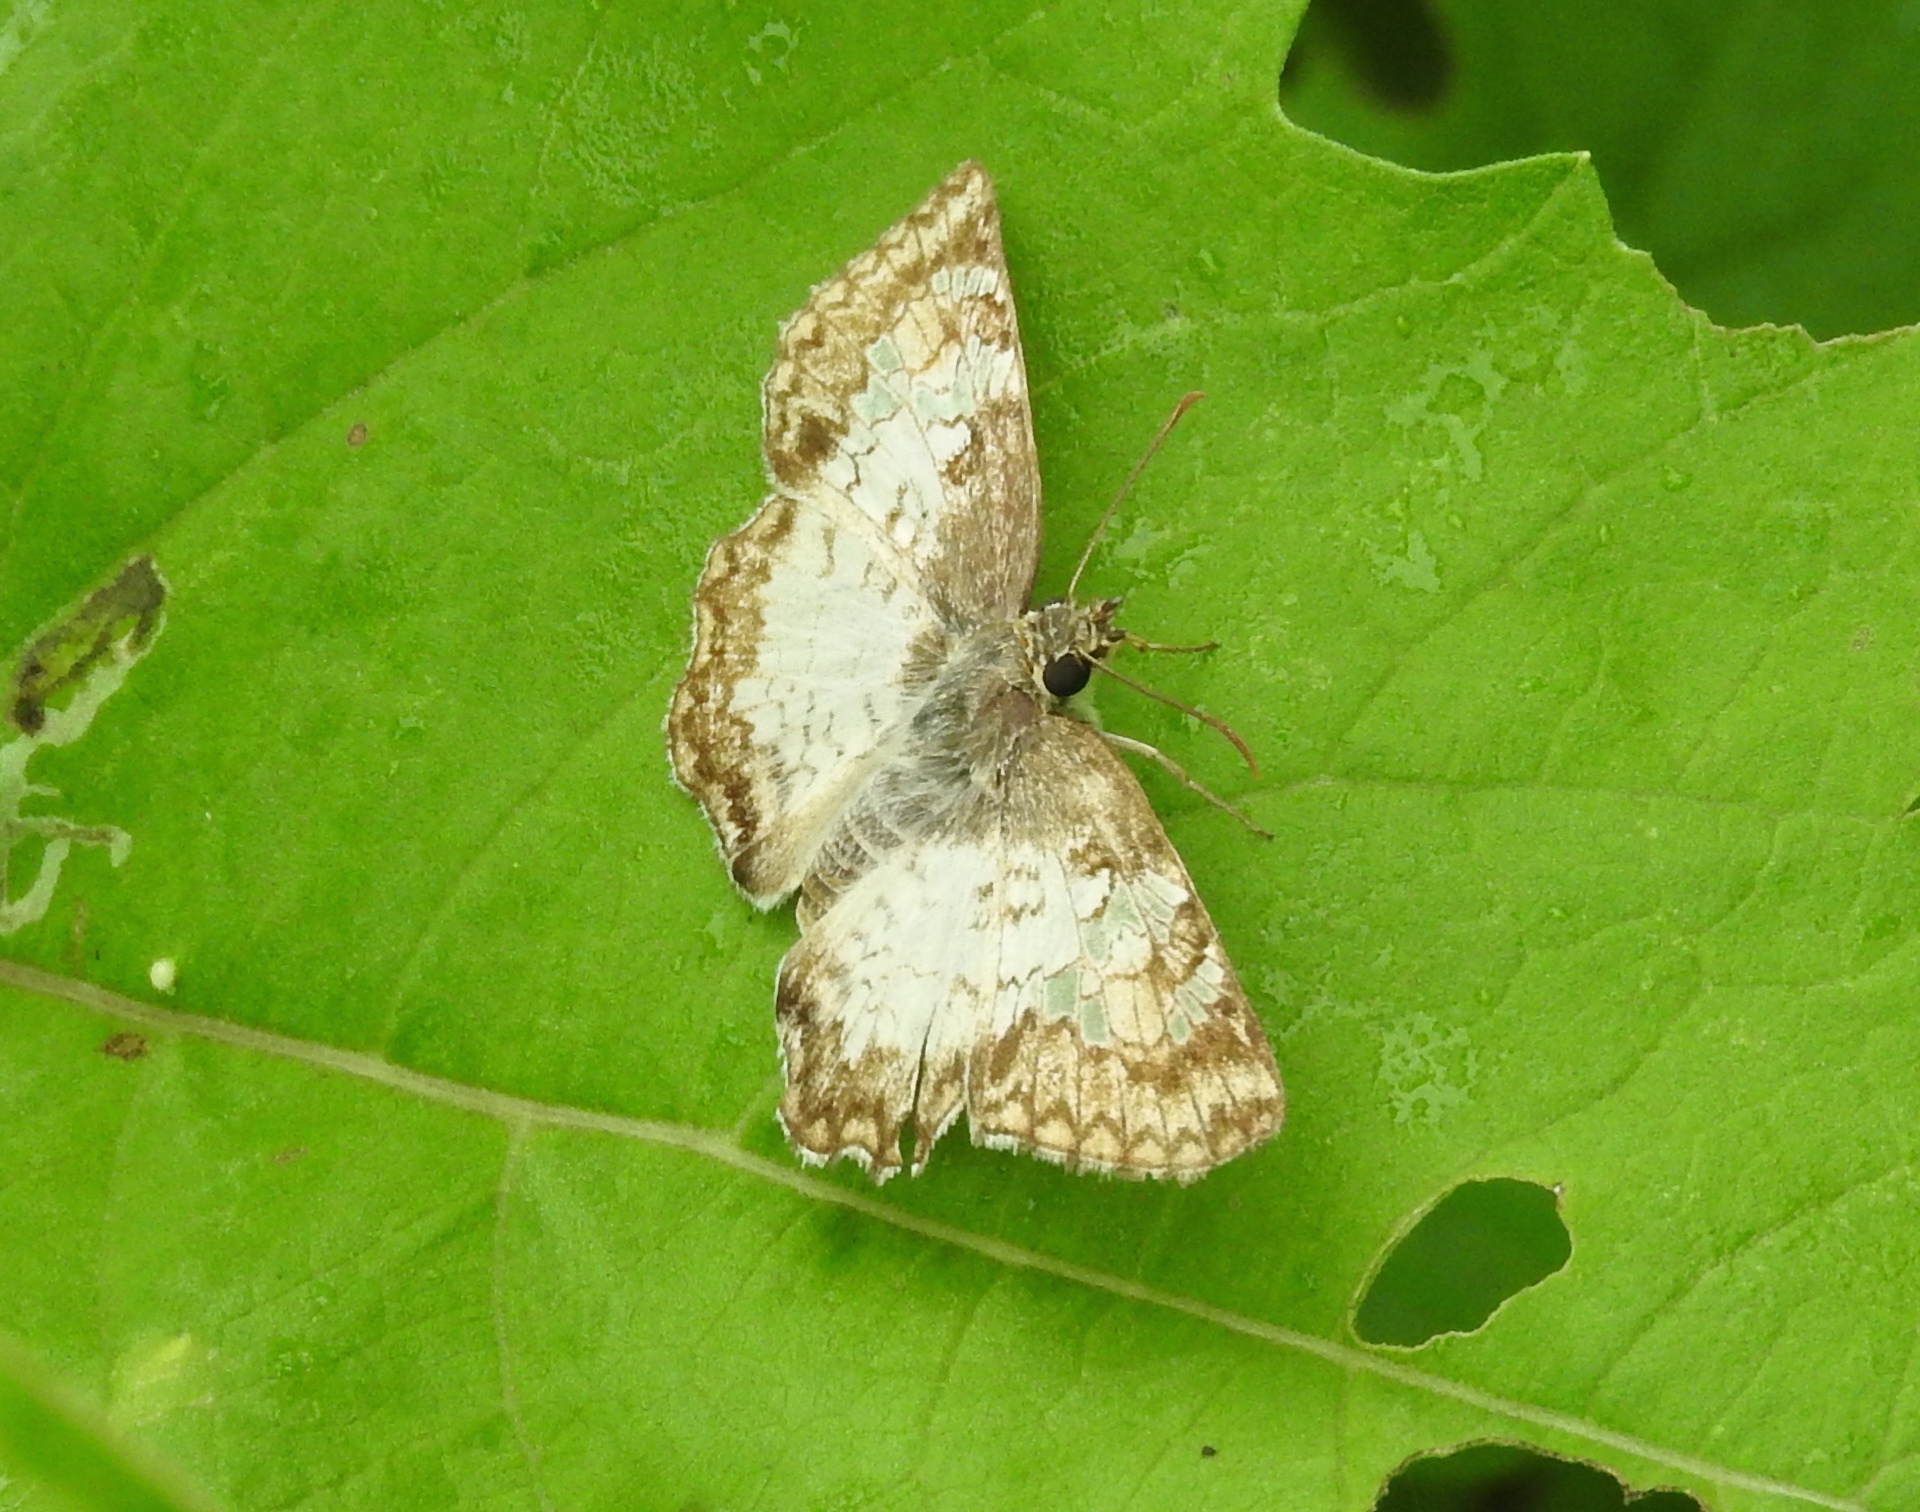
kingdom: Animalia
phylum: Arthropoda
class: Insecta
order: Lepidoptera
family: Hesperiidae
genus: Antigonus
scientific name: Antigonus emorsa
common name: White spurwing
